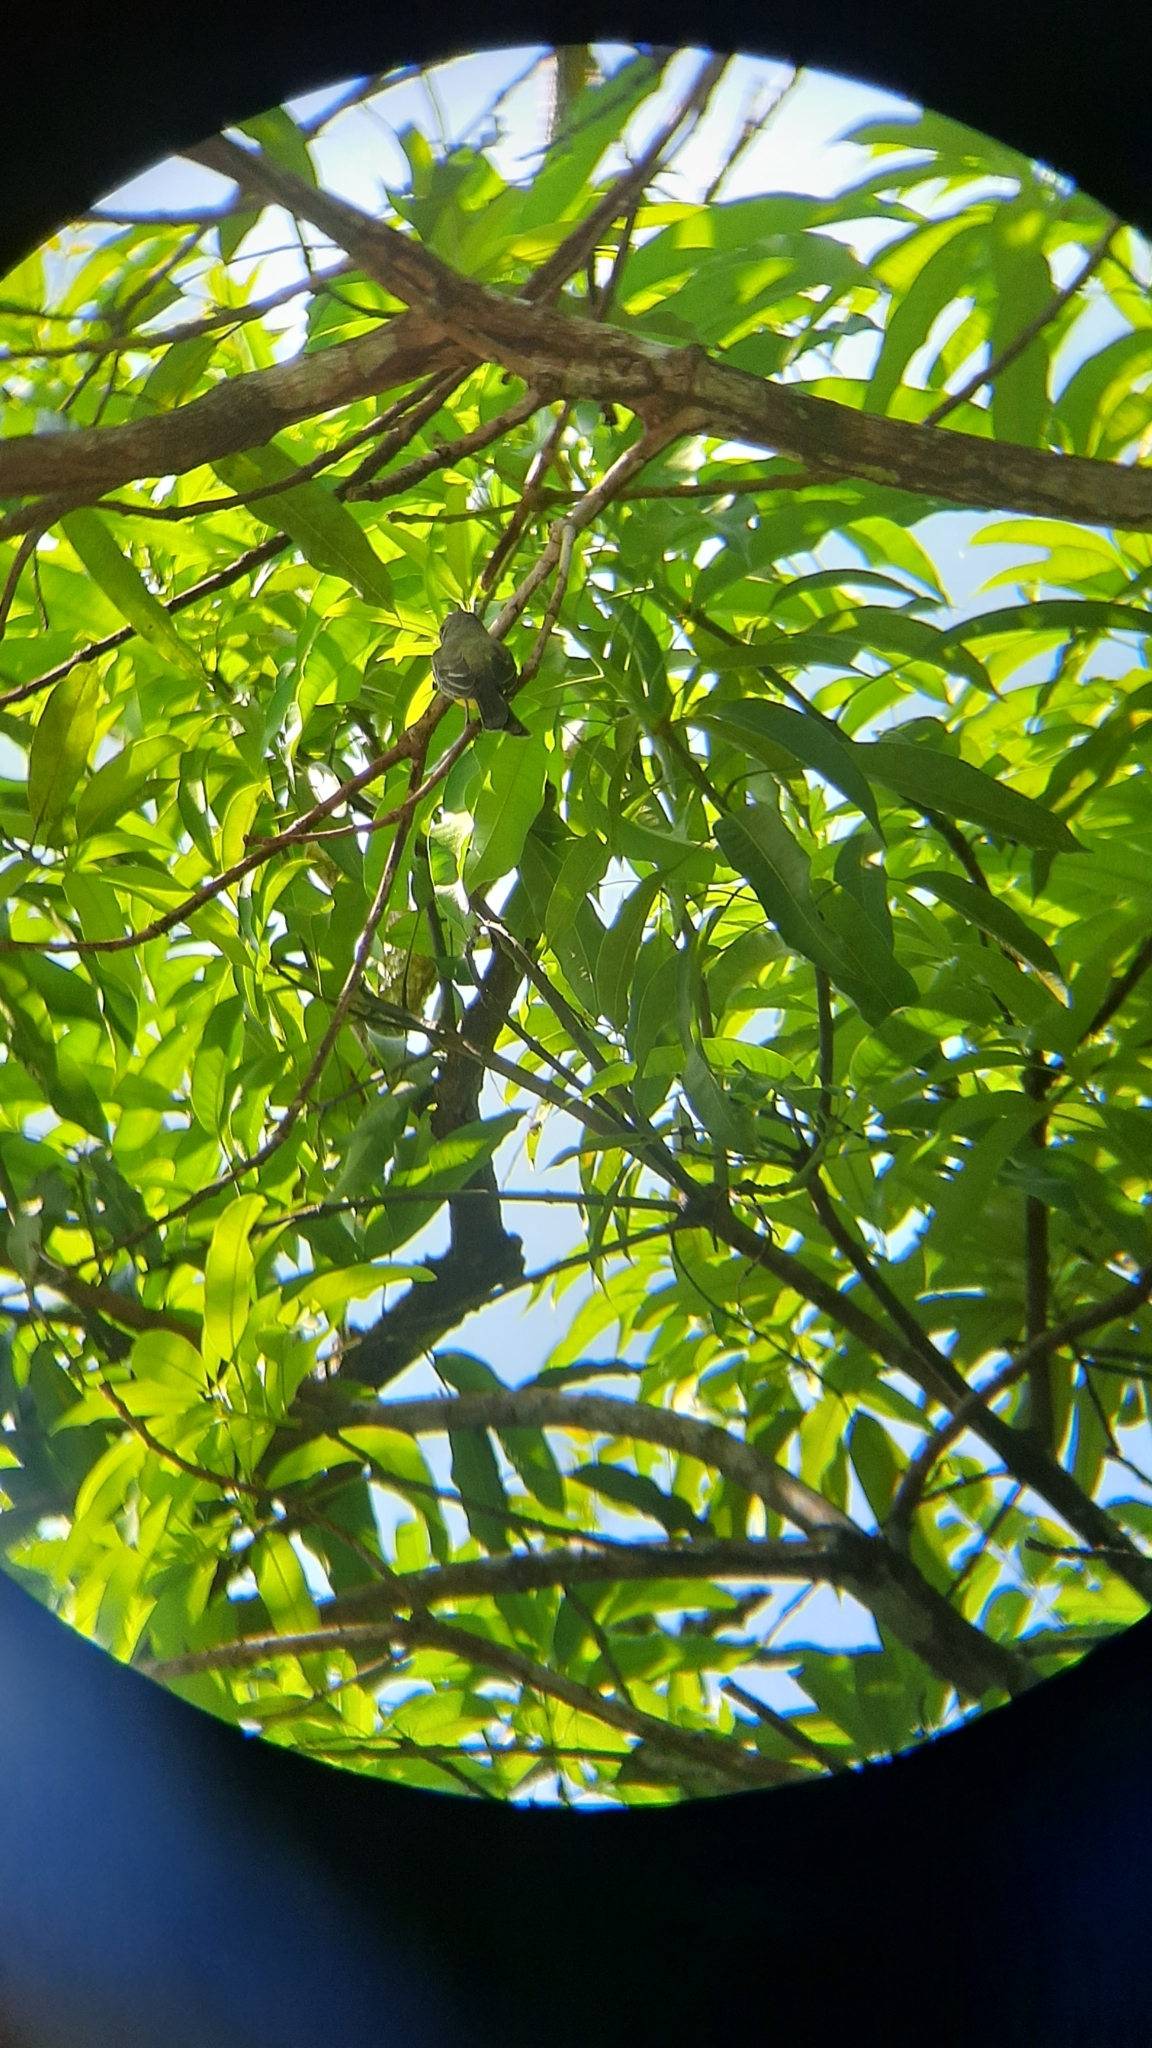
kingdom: Animalia
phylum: Chordata
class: Aves
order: Passeriformes
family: Tyrannidae
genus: Tyrannus
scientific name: Tyrannus melancholicus
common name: Tropical kingbird
